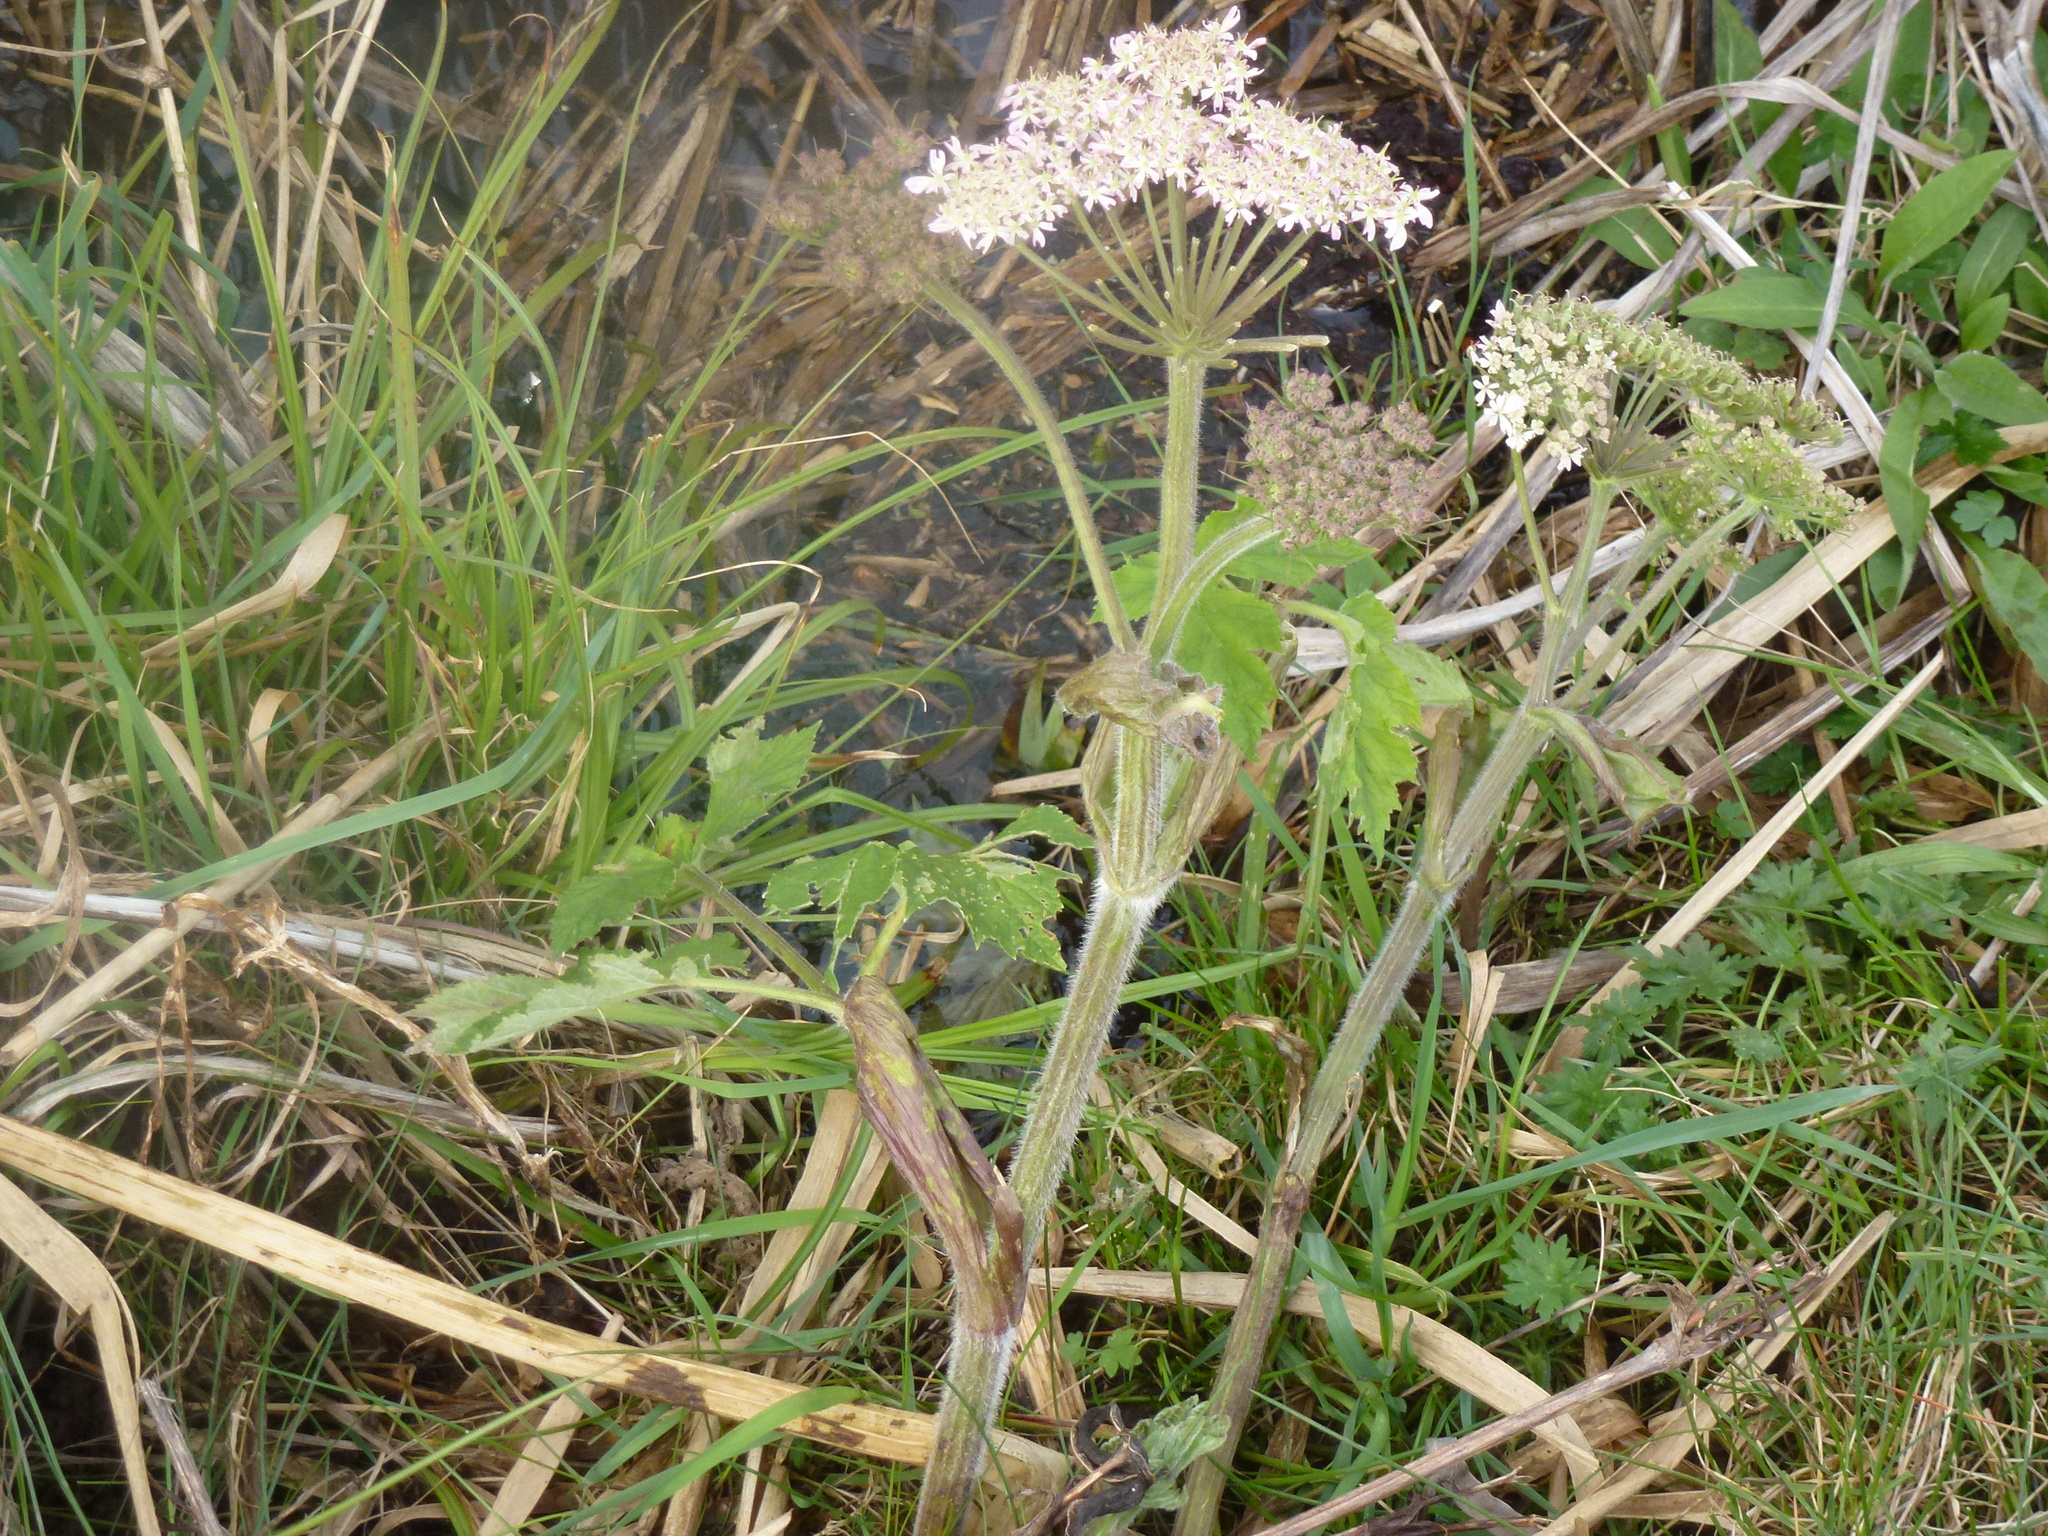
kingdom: Plantae
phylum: Tracheophyta
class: Magnoliopsida
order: Apiales
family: Apiaceae
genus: Heracleum
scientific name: Heracleum sphondylium
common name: Hogweed
